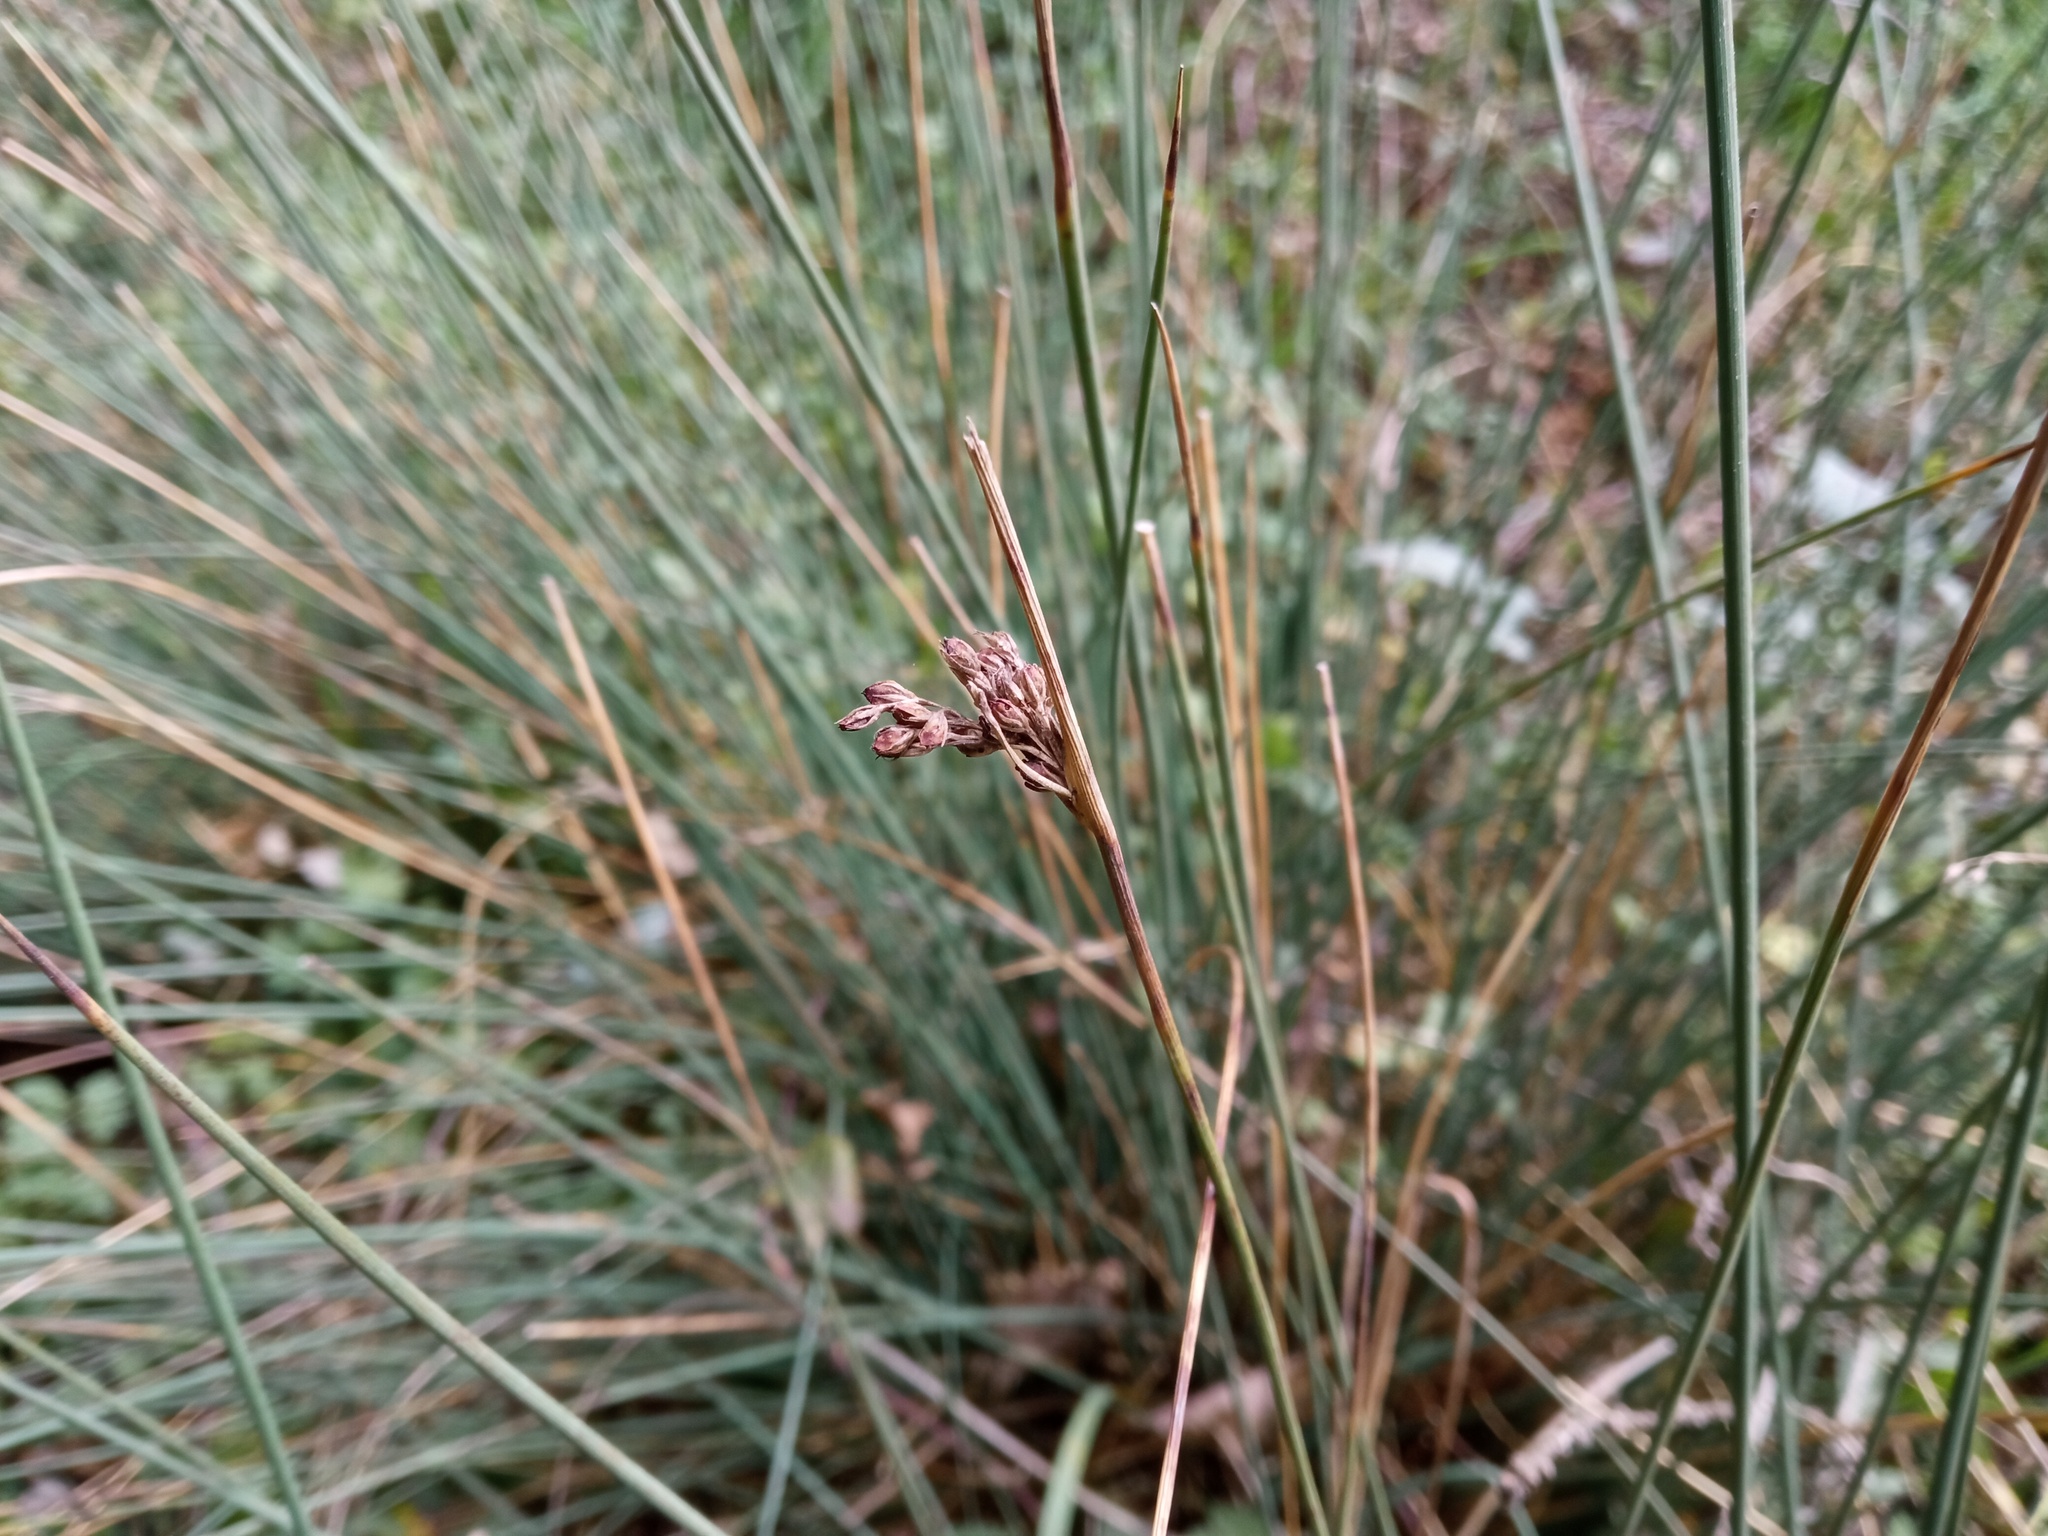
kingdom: Plantae
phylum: Tracheophyta
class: Liliopsida
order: Poales
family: Juncaceae
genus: Juncus
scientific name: Juncus inflexus
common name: Hard rush
